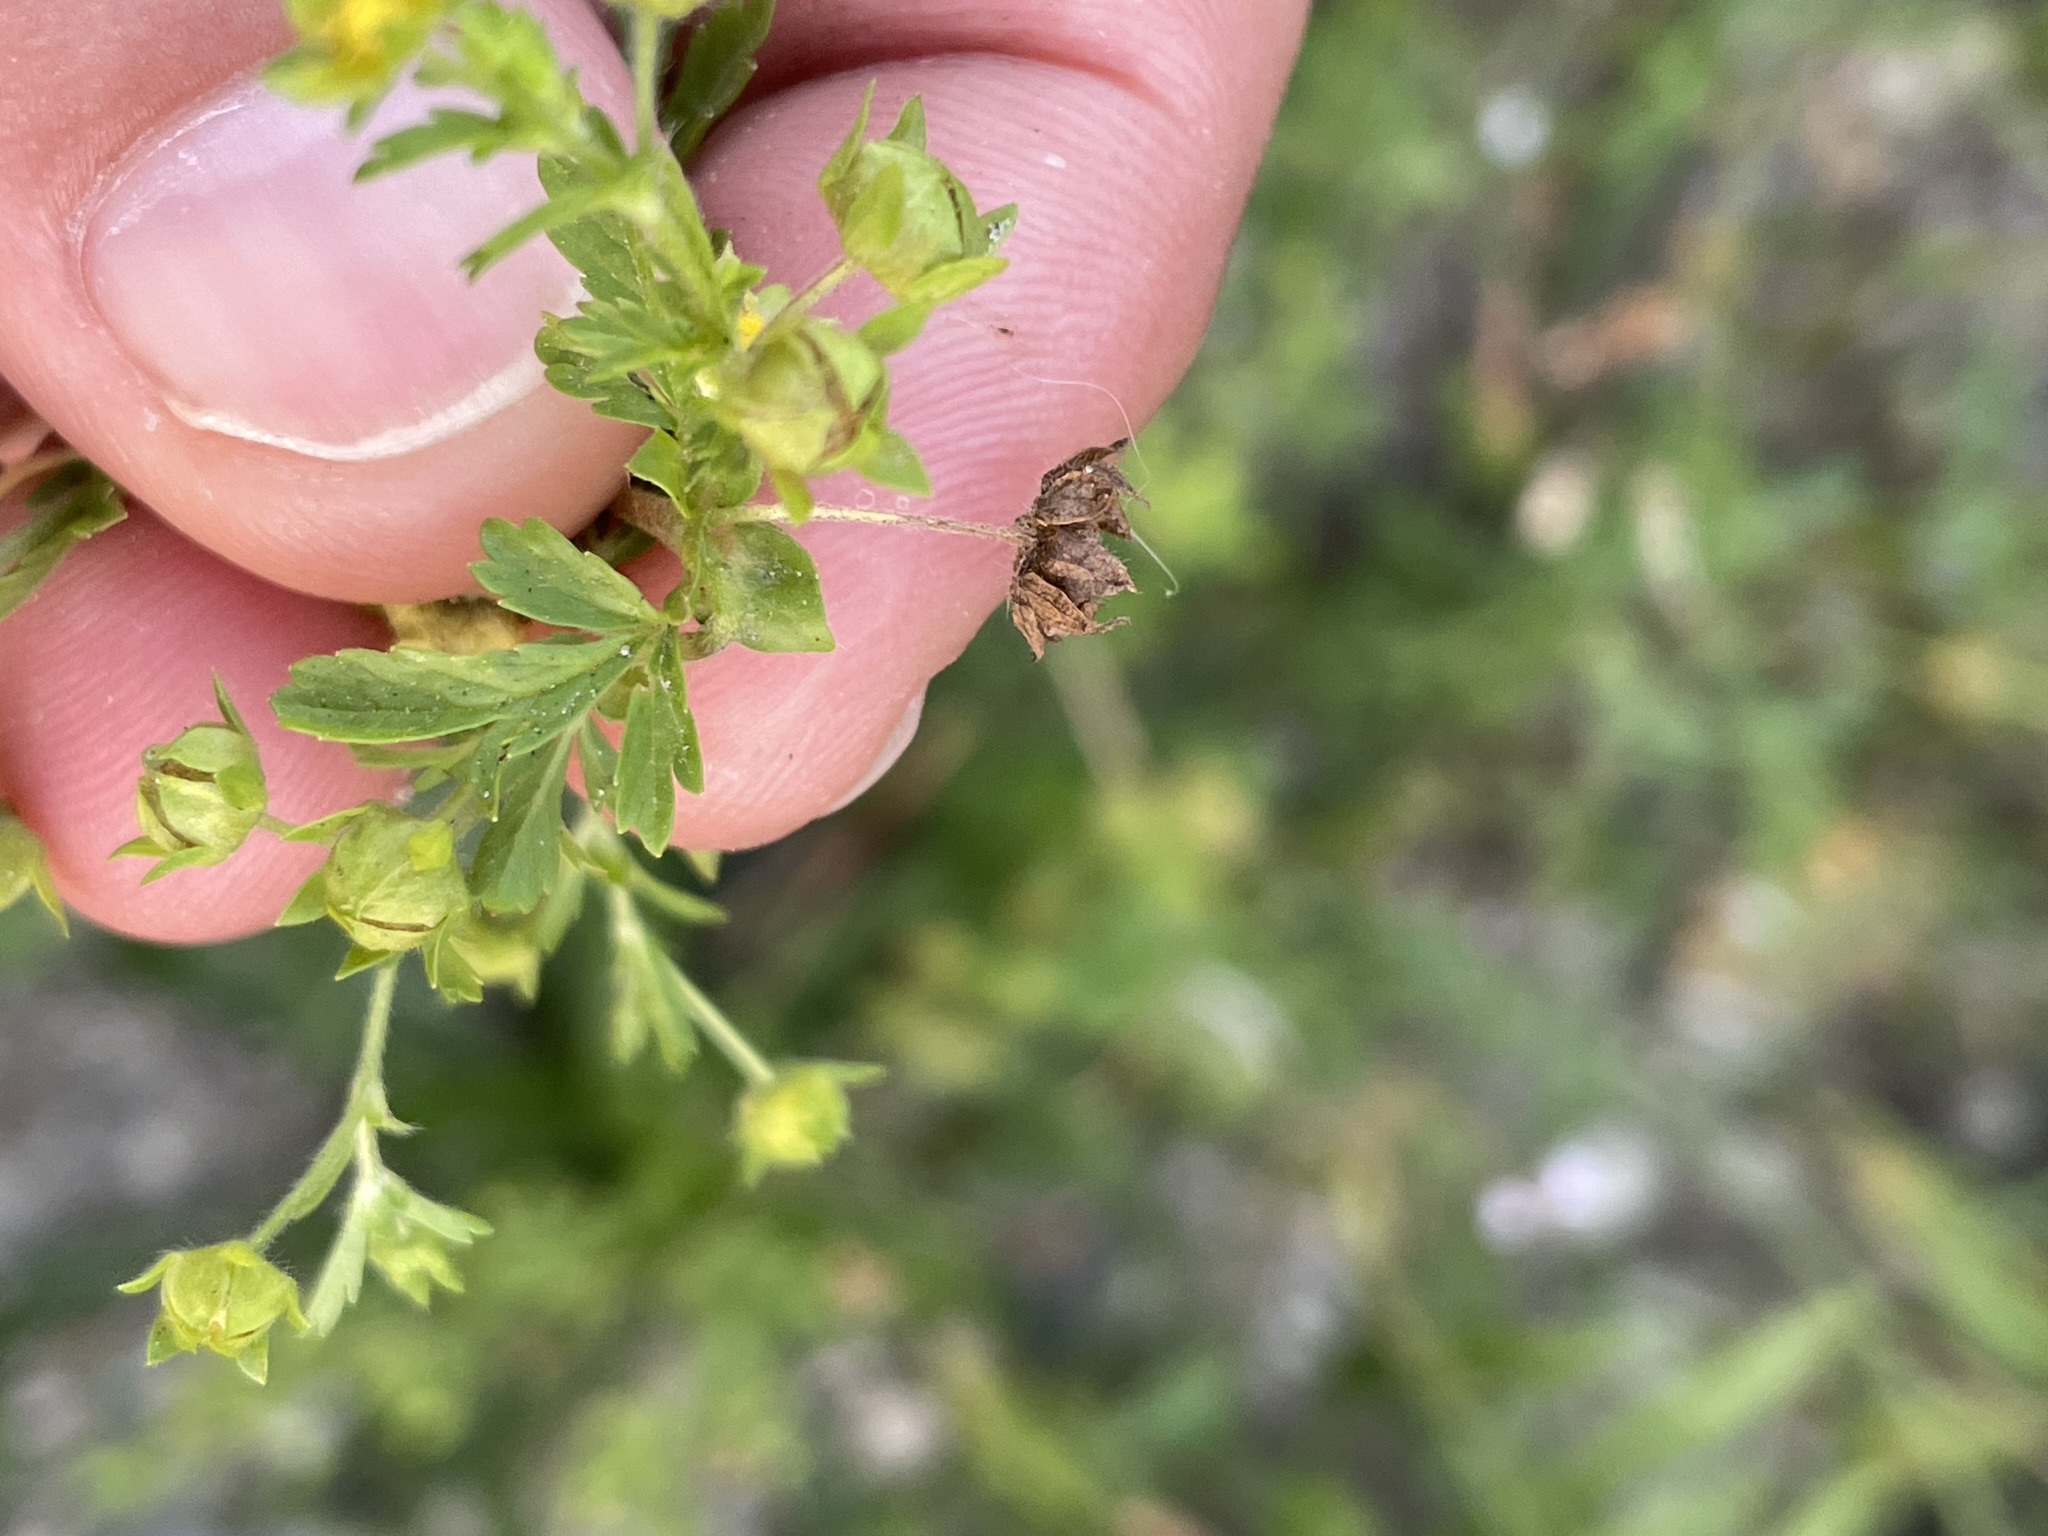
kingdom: Plantae
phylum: Tracheophyta
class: Magnoliopsida
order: Rosales
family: Rosaceae
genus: Potentilla
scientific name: Potentilla supina
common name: Prostrate cinquefoil
